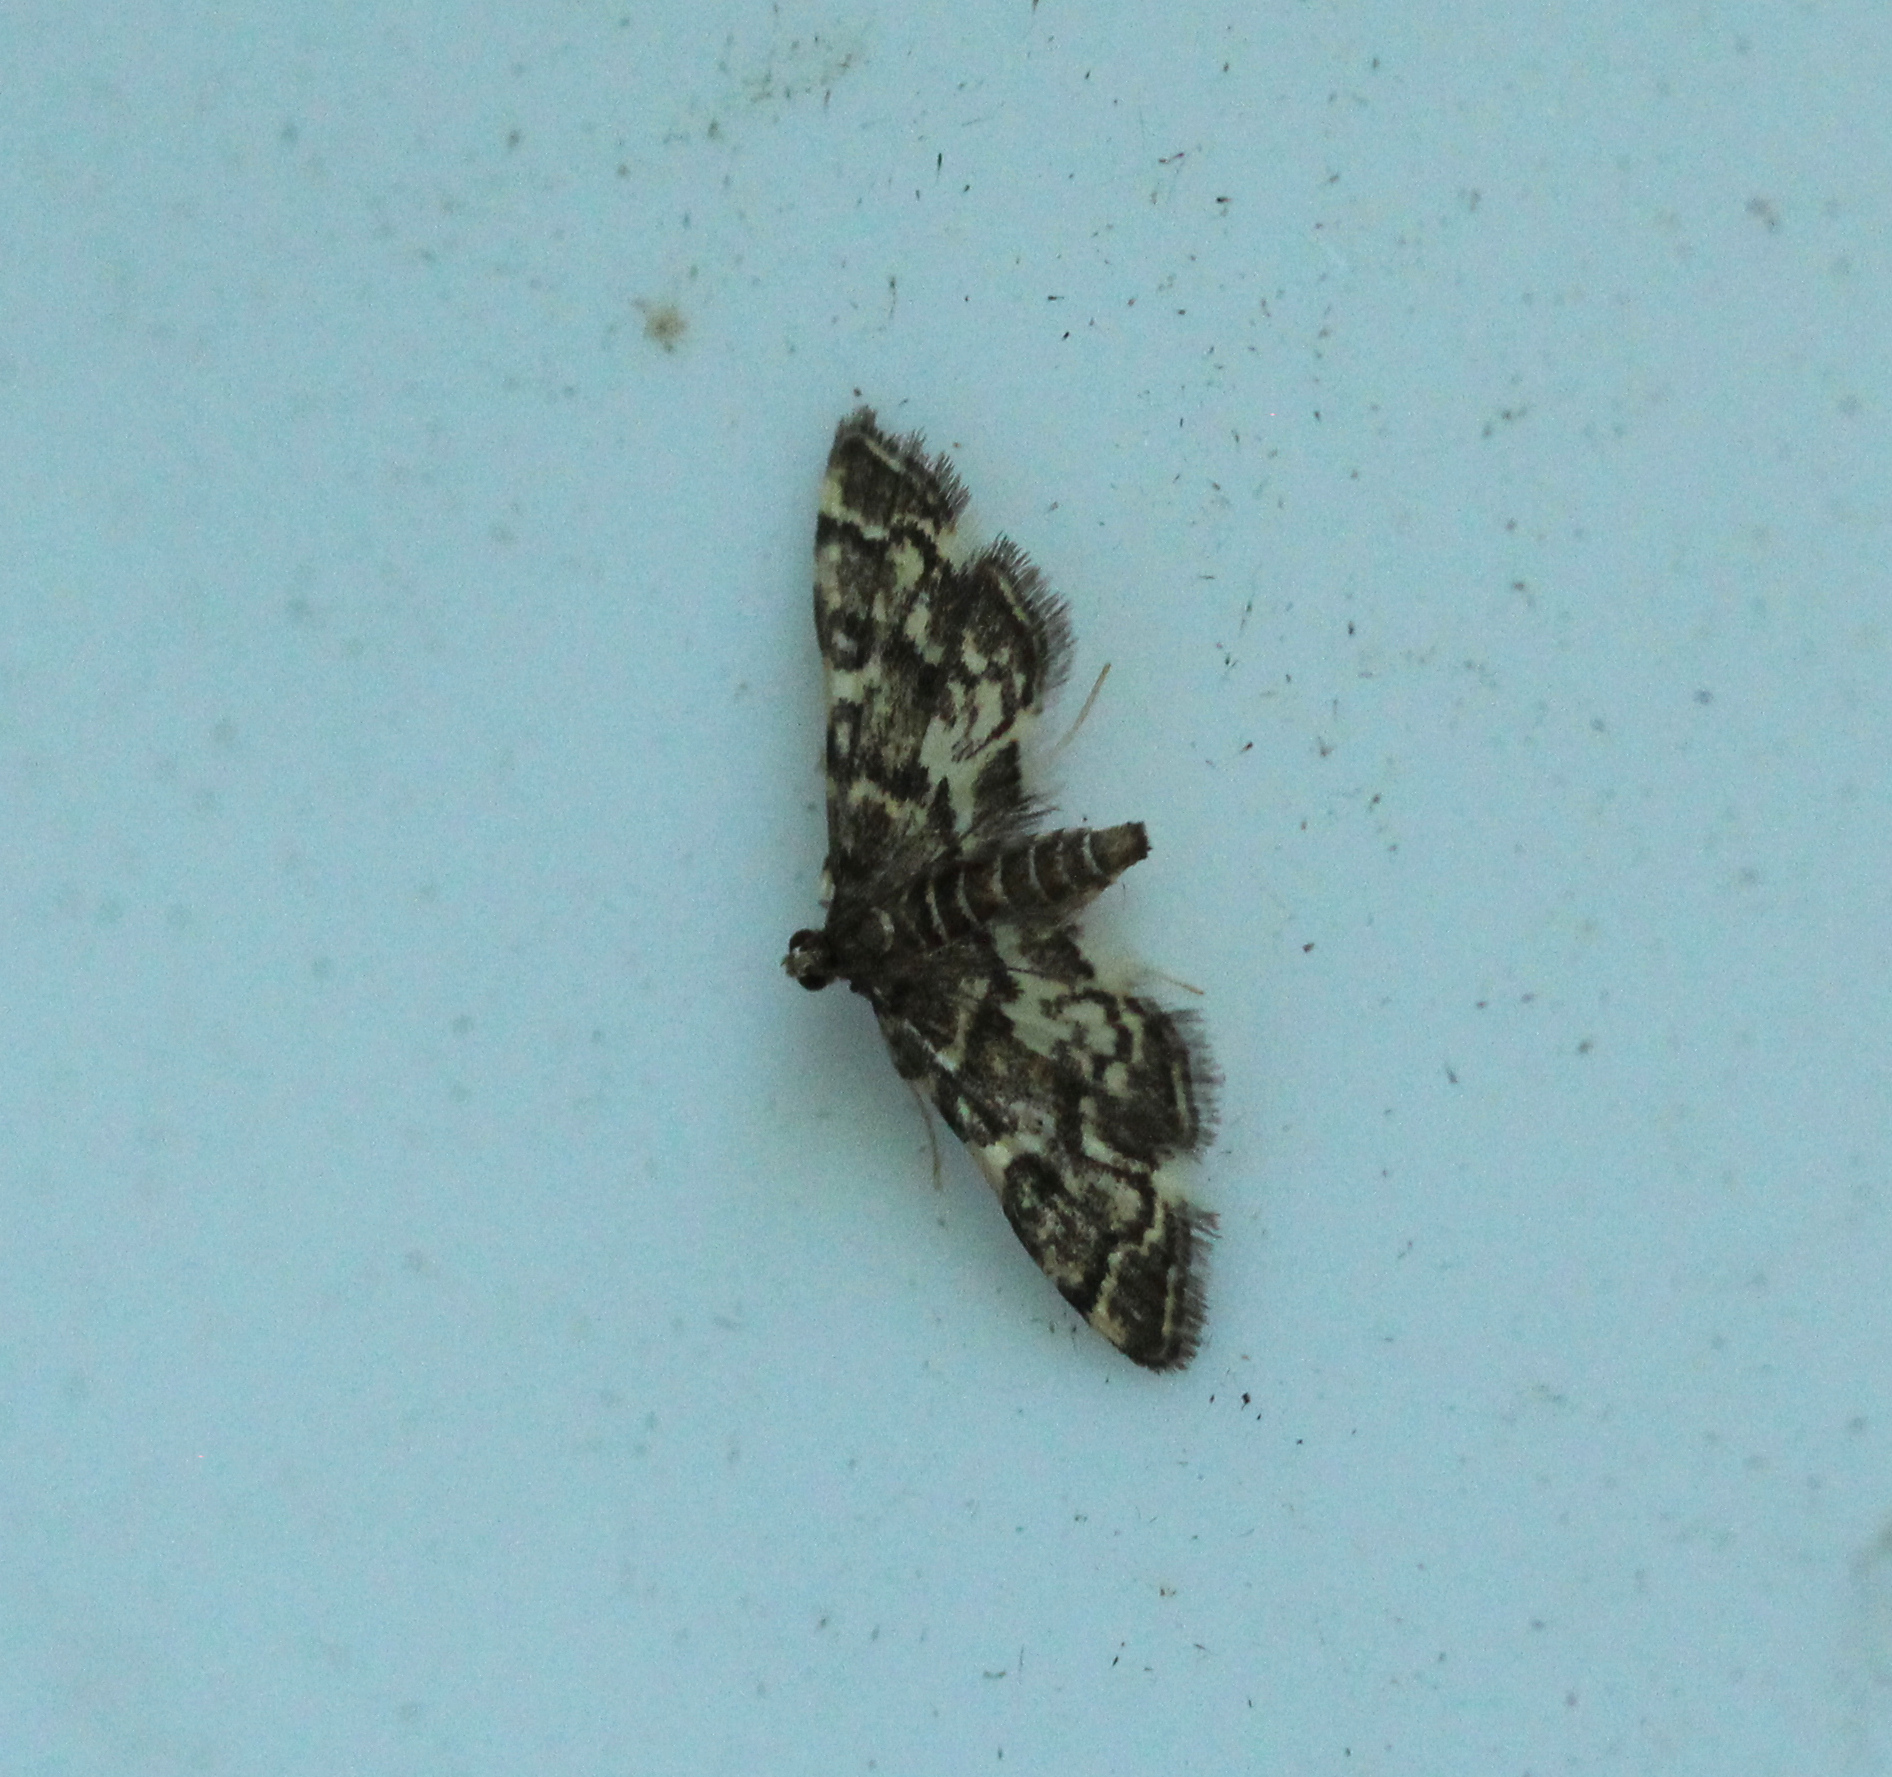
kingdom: Animalia
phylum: Arthropoda
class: Insecta
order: Lepidoptera
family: Crambidae
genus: Anageshna
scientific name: Anageshna primordialis
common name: Yellow-spotted webworm moth
